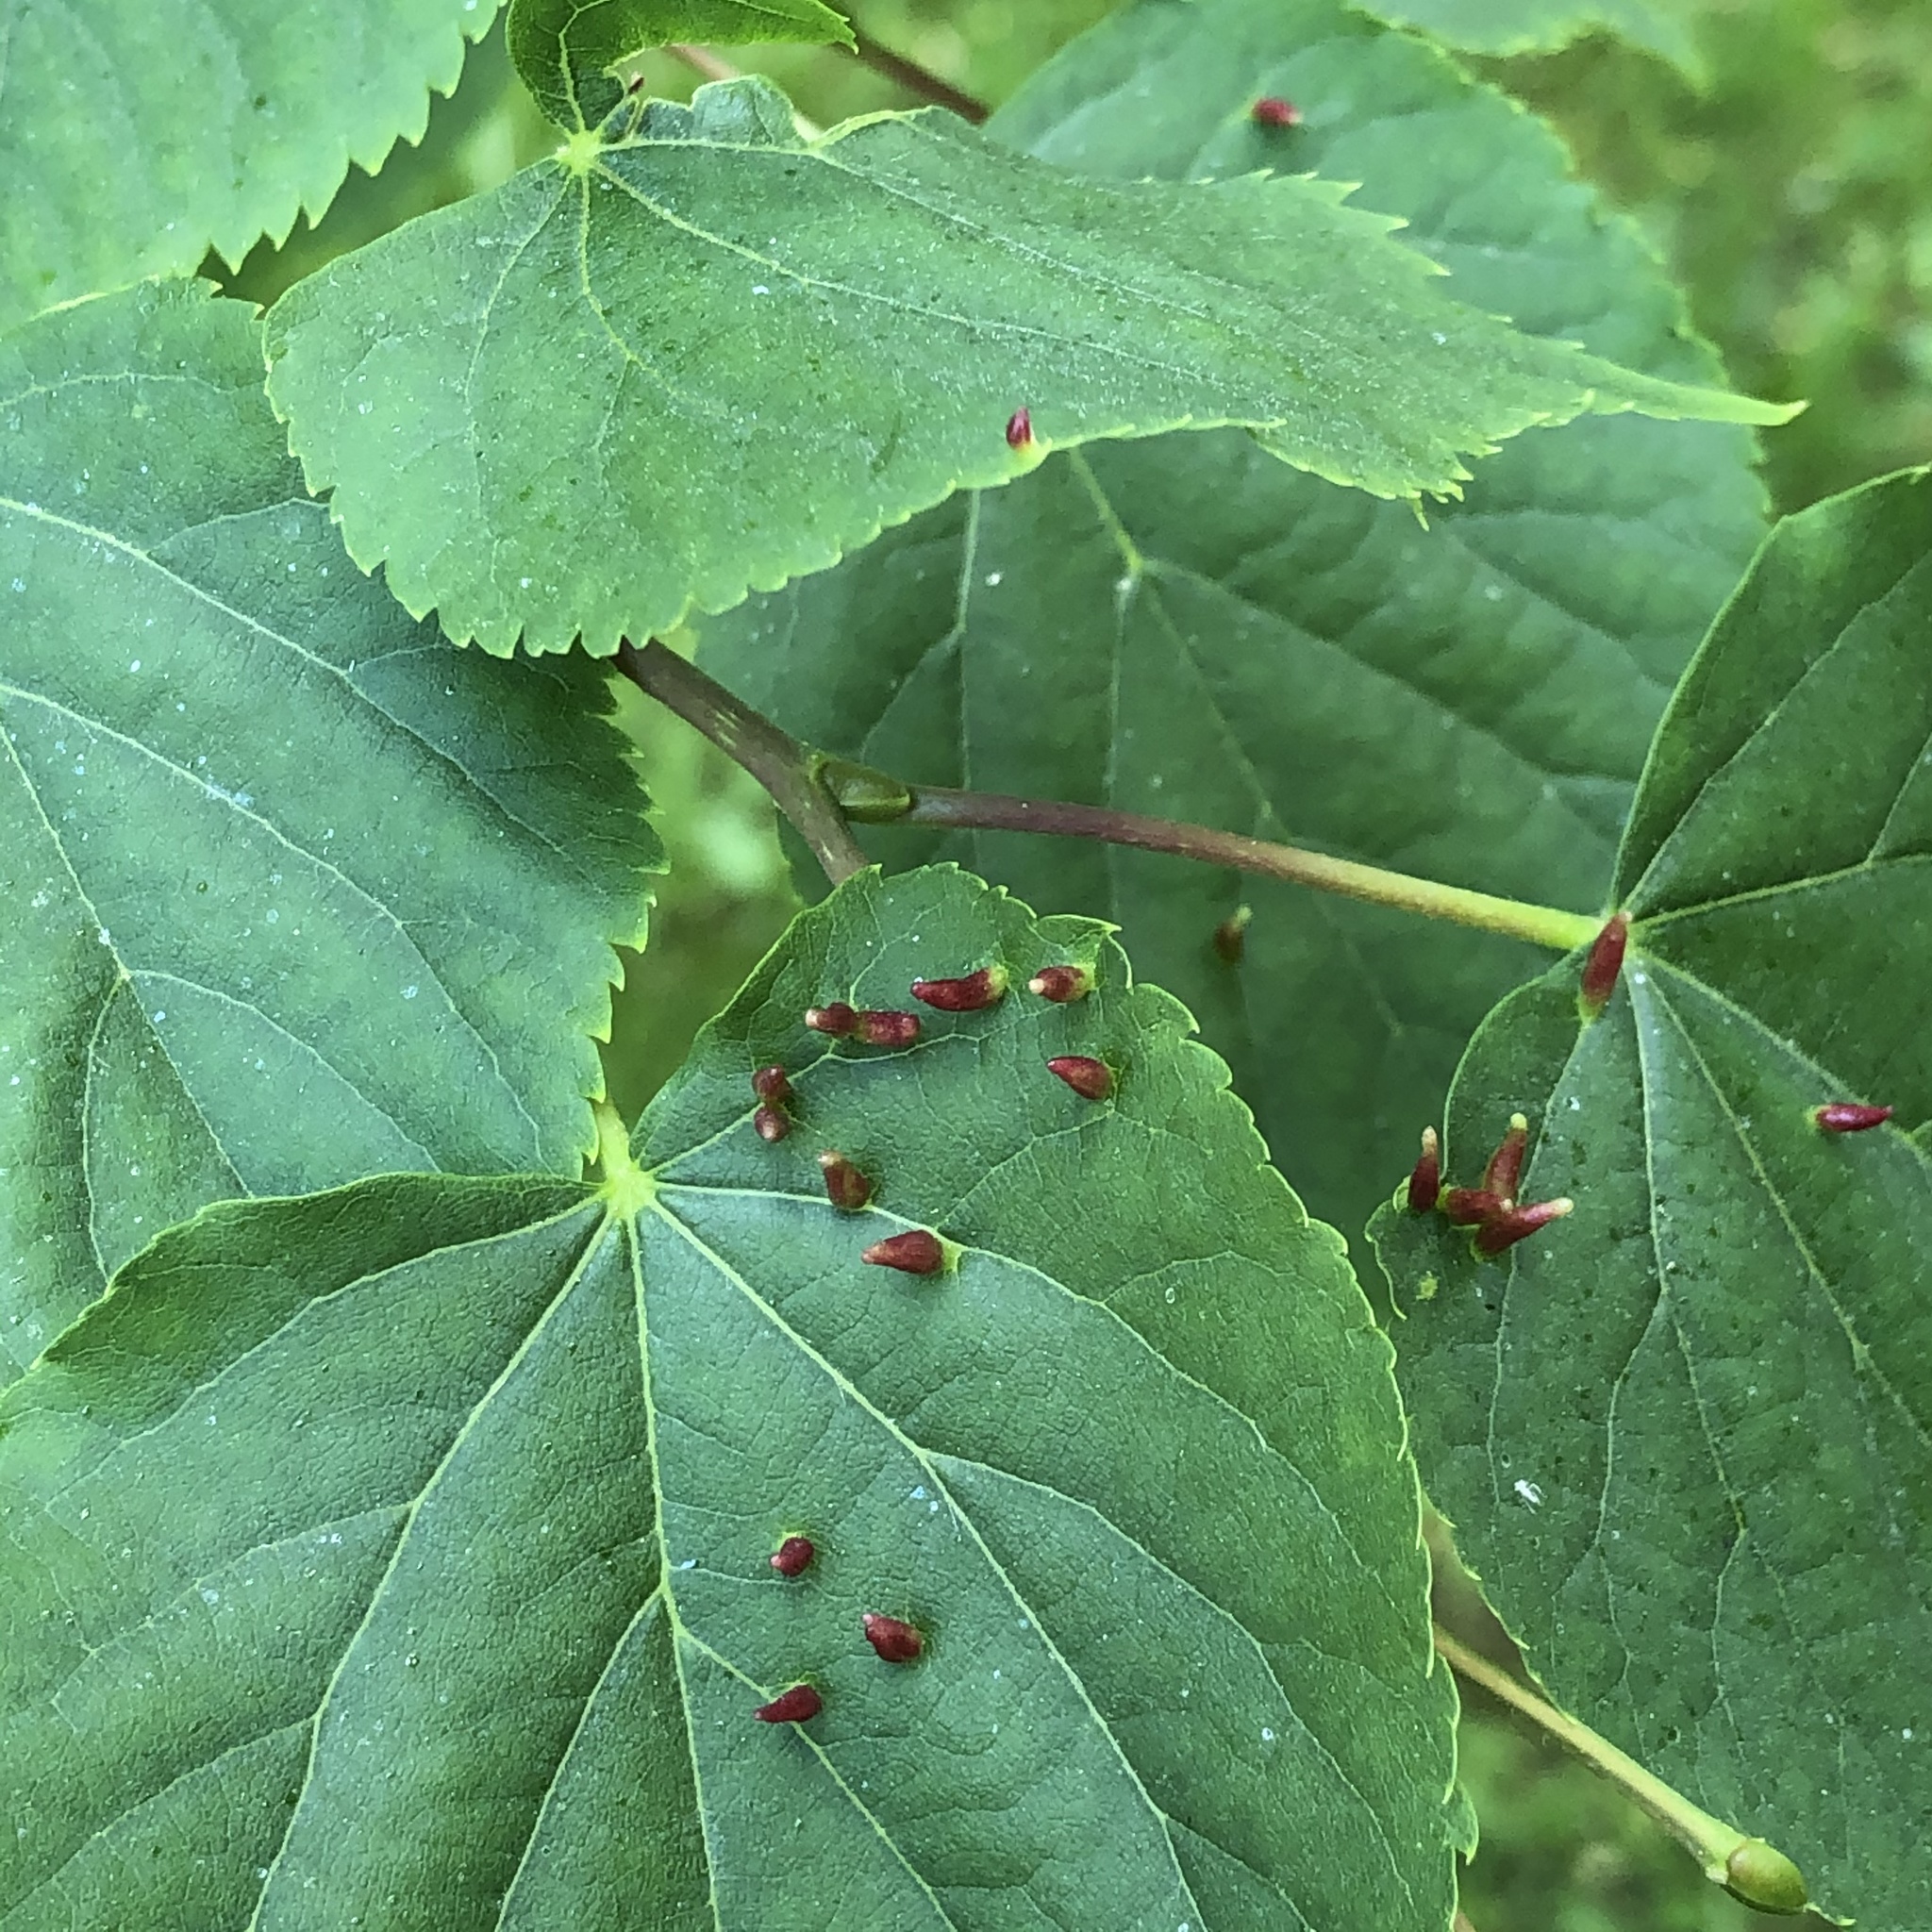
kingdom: Animalia
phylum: Arthropoda
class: Arachnida
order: Trombidiformes
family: Eriophyidae
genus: Eriophyes
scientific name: Eriophyes tiliae
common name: Red nail gall mite
